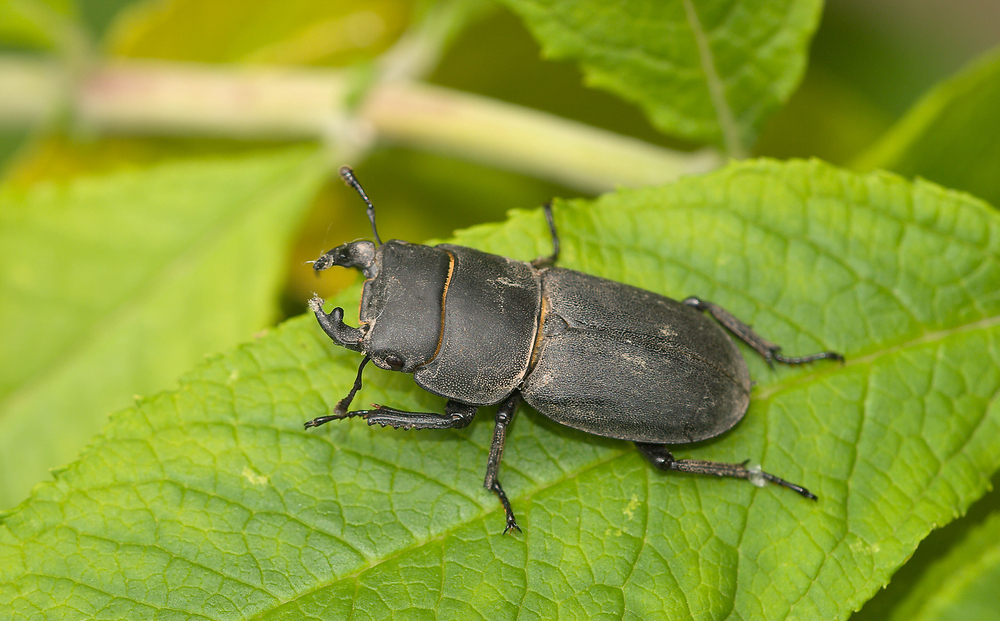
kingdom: Animalia
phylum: Arthropoda
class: Insecta
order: Coleoptera
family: Lucanidae
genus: Dorcus
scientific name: Dorcus parallelipipedus
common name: Lesser stag beetle
